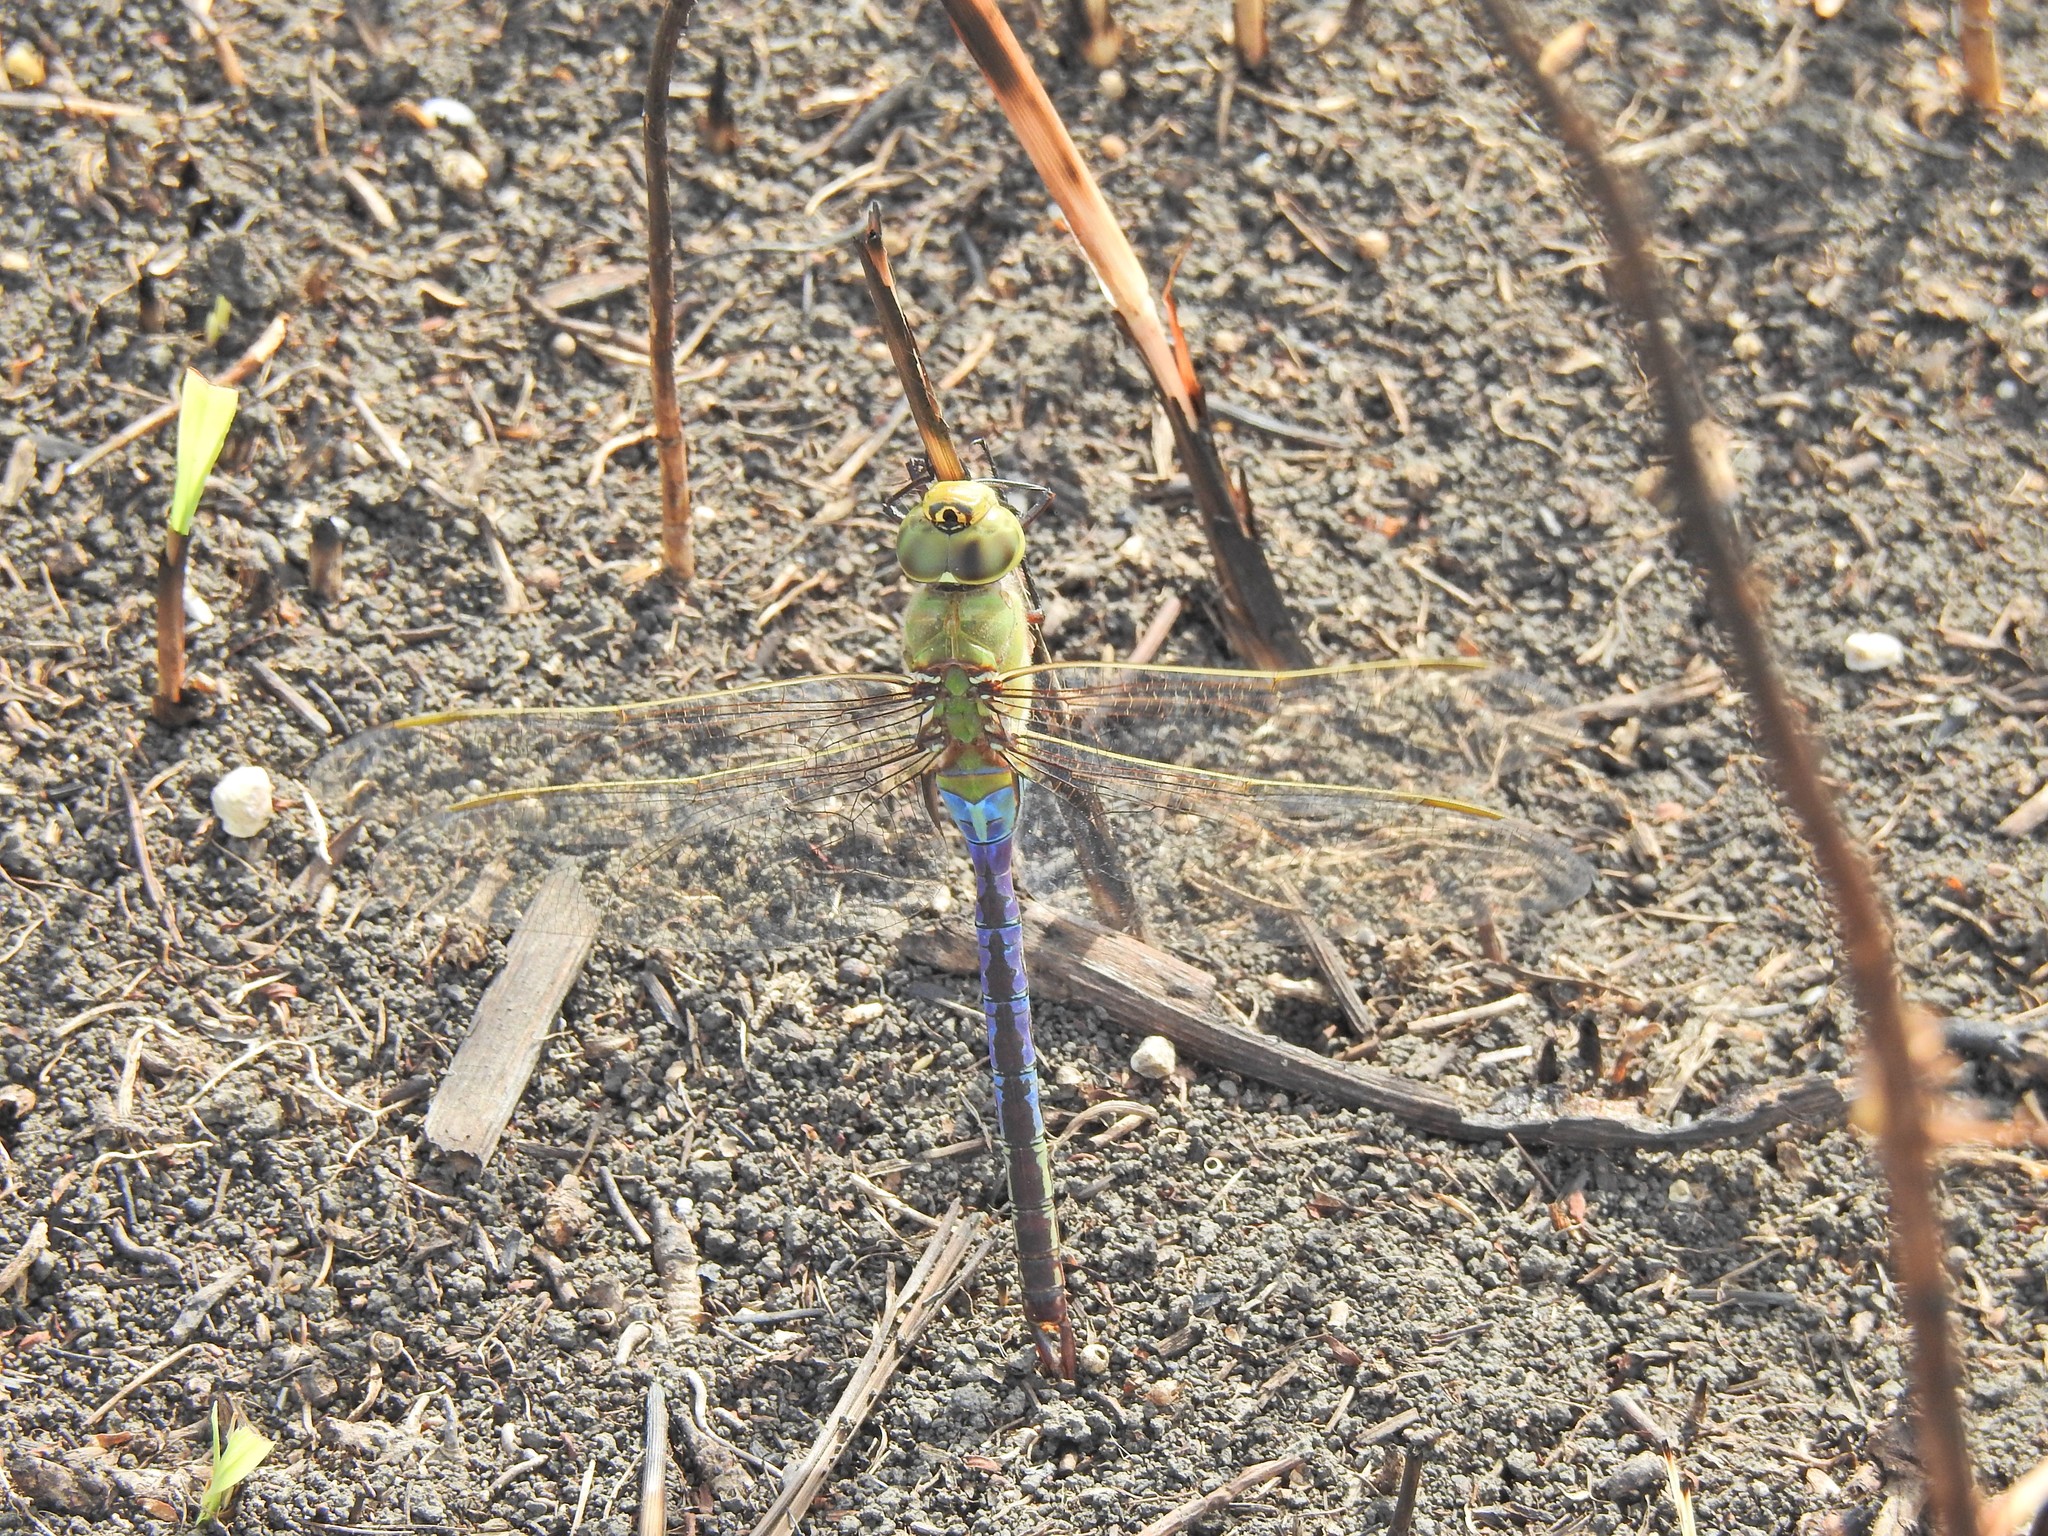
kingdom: Animalia
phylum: Arthropoda
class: Insecta
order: Odonata
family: Aeshnidae
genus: Anax
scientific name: Anax junius
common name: Common green darner
